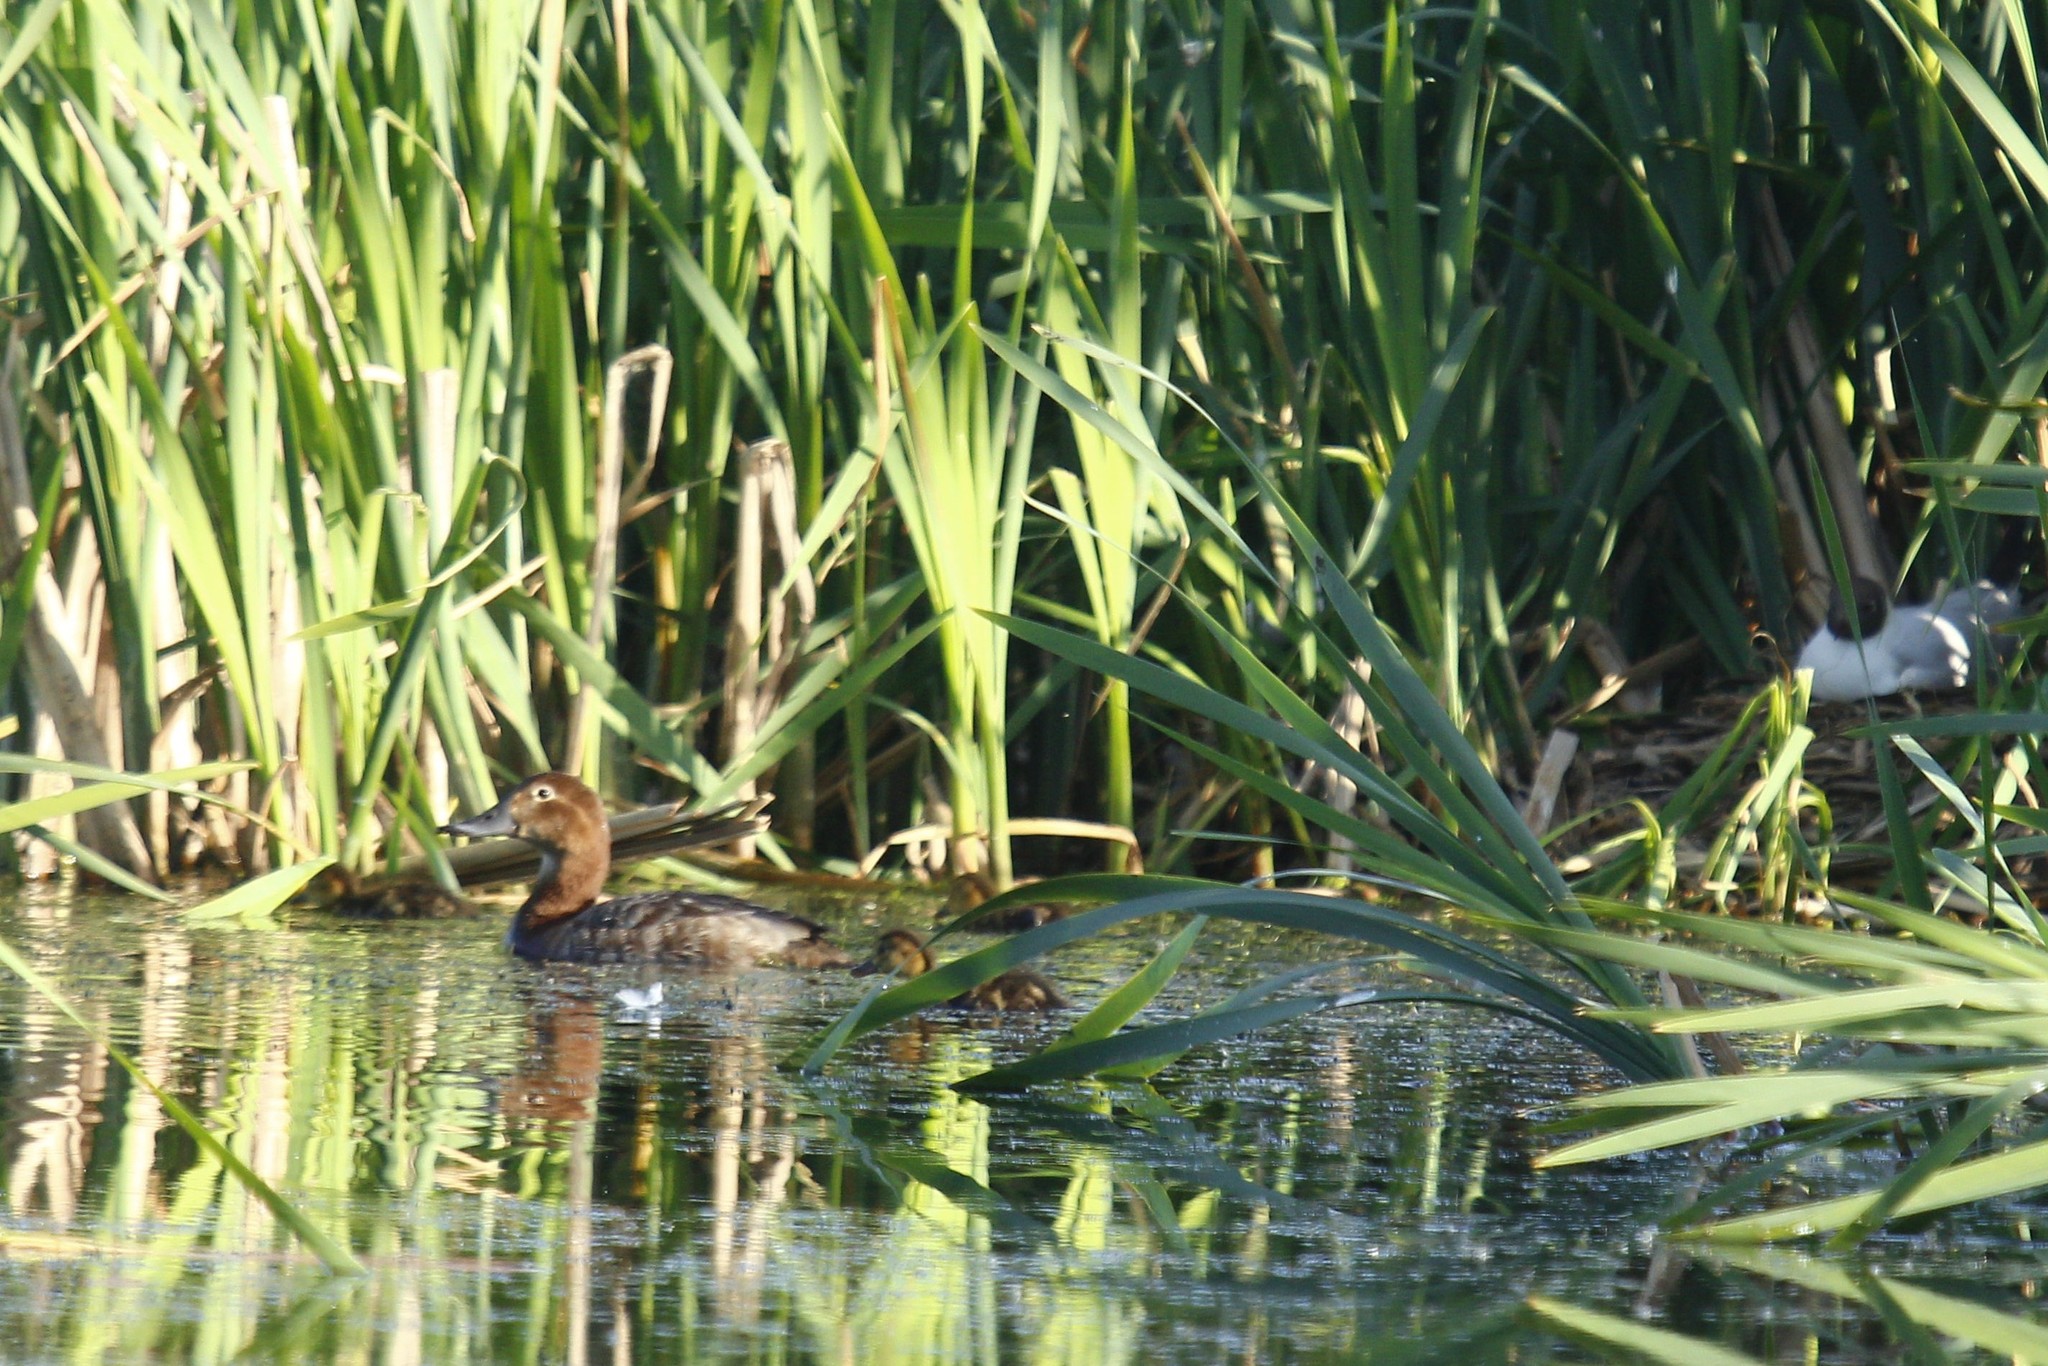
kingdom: Animalia
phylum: Chordata
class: Aves
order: Anseriformes
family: Anatidae
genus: Aythya
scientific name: Aythya ferina
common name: Common pochard
